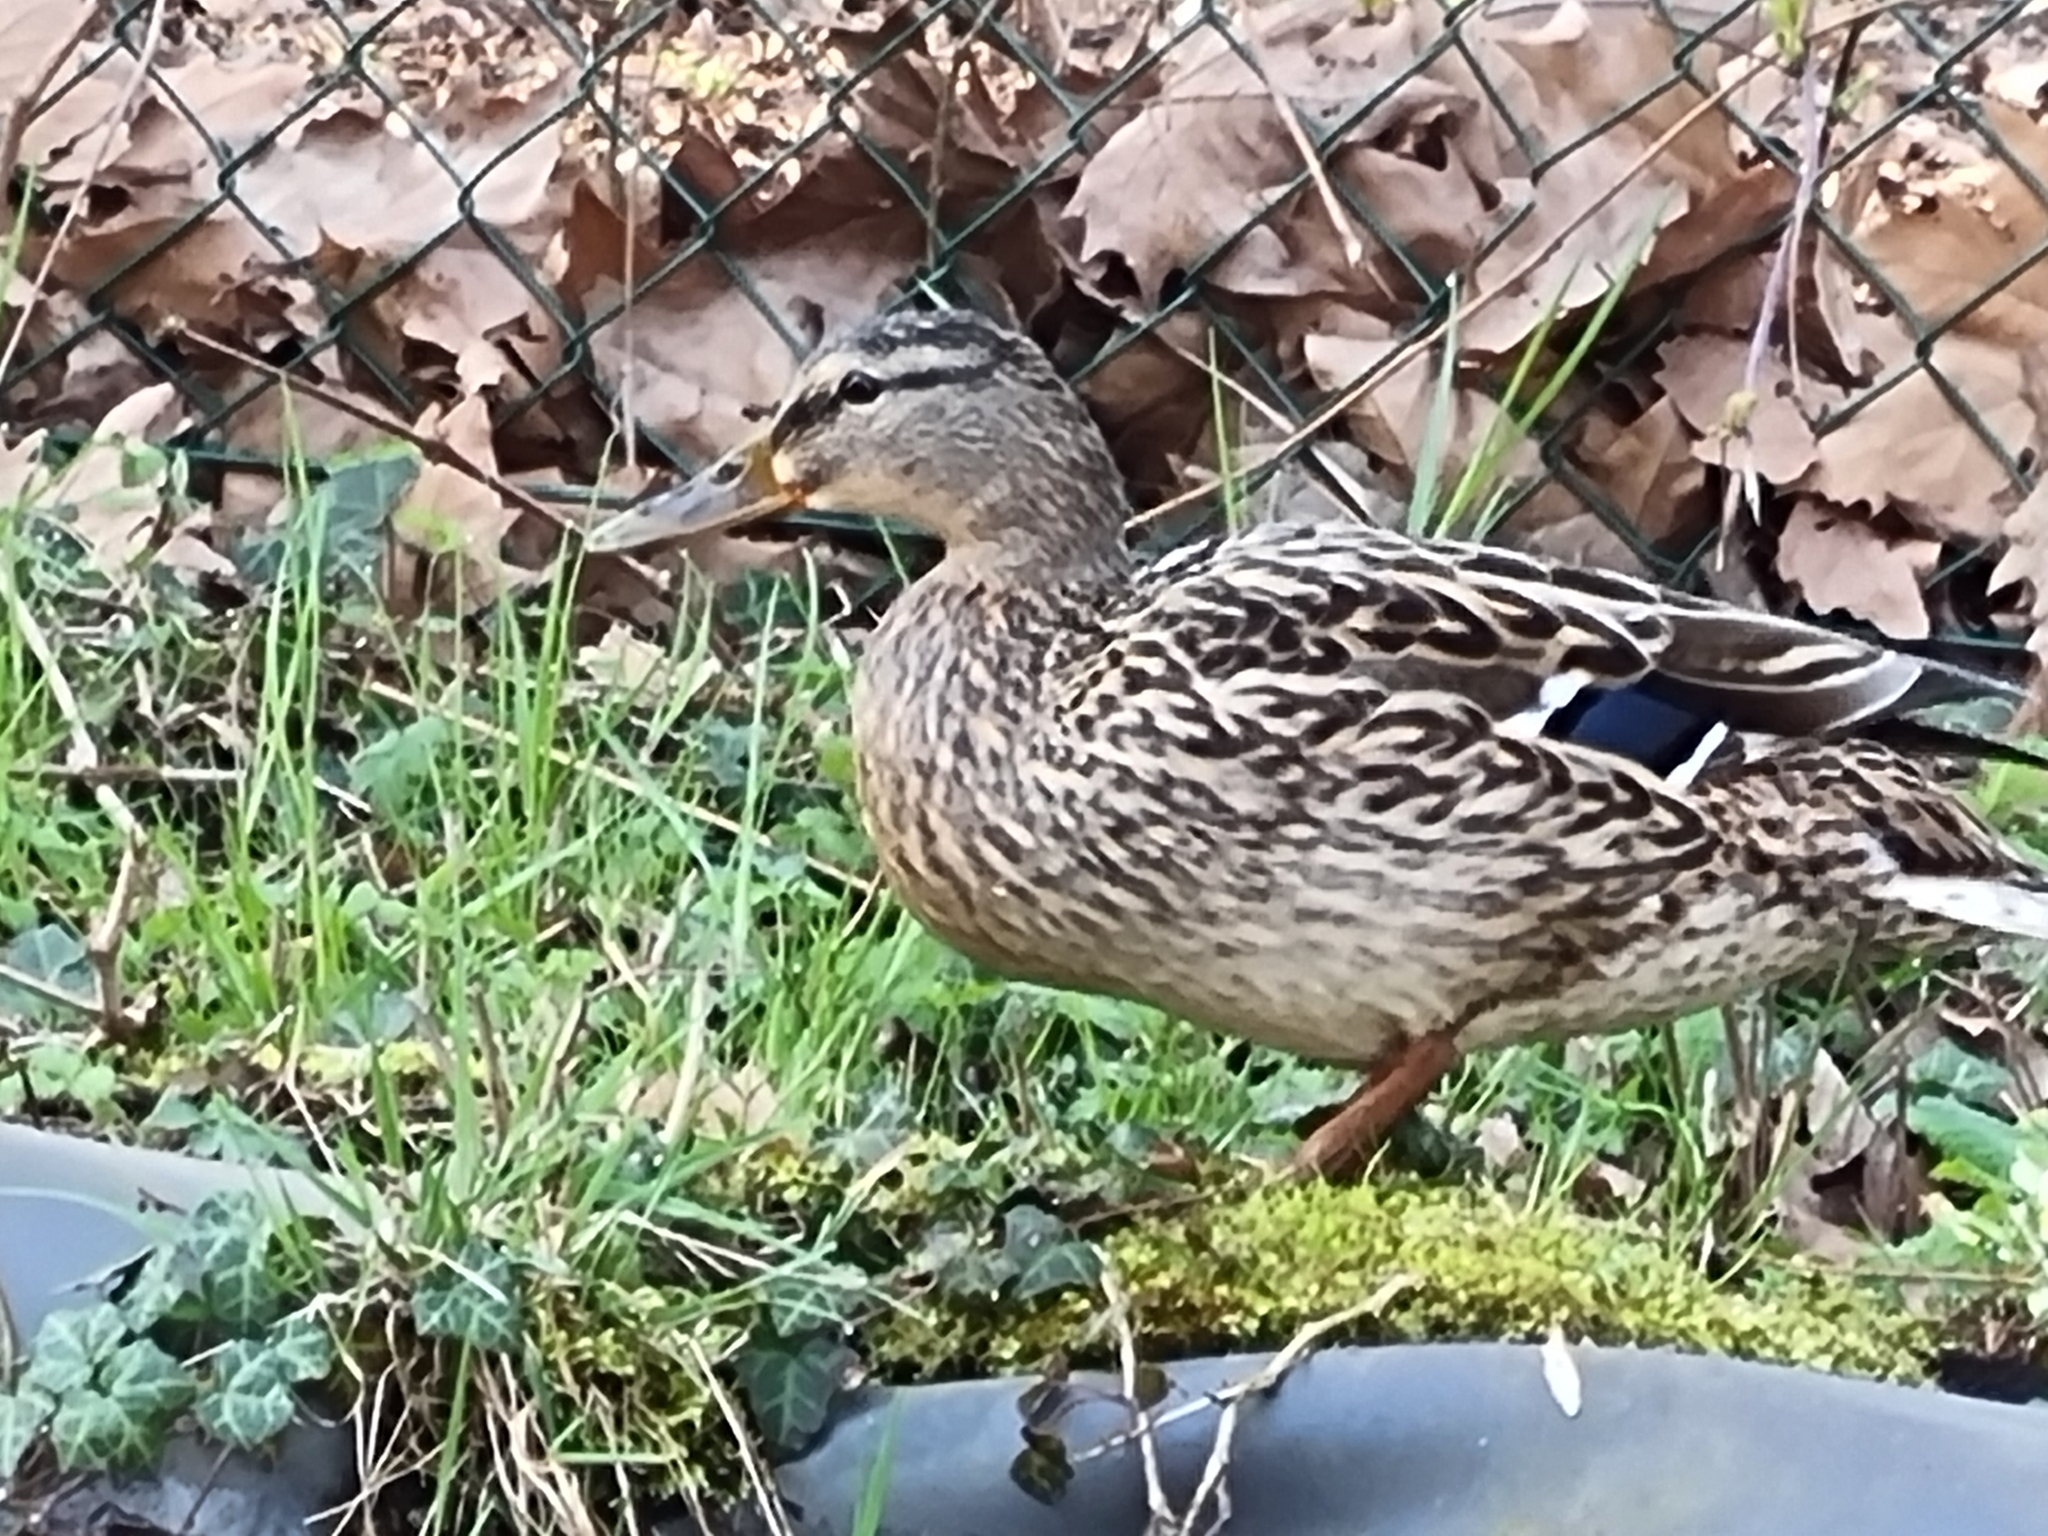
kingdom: Animalia
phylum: Chordata
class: Aves
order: Anseriformes
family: Anatidae
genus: Anas
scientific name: Anas platyrhynchos
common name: Mallard
